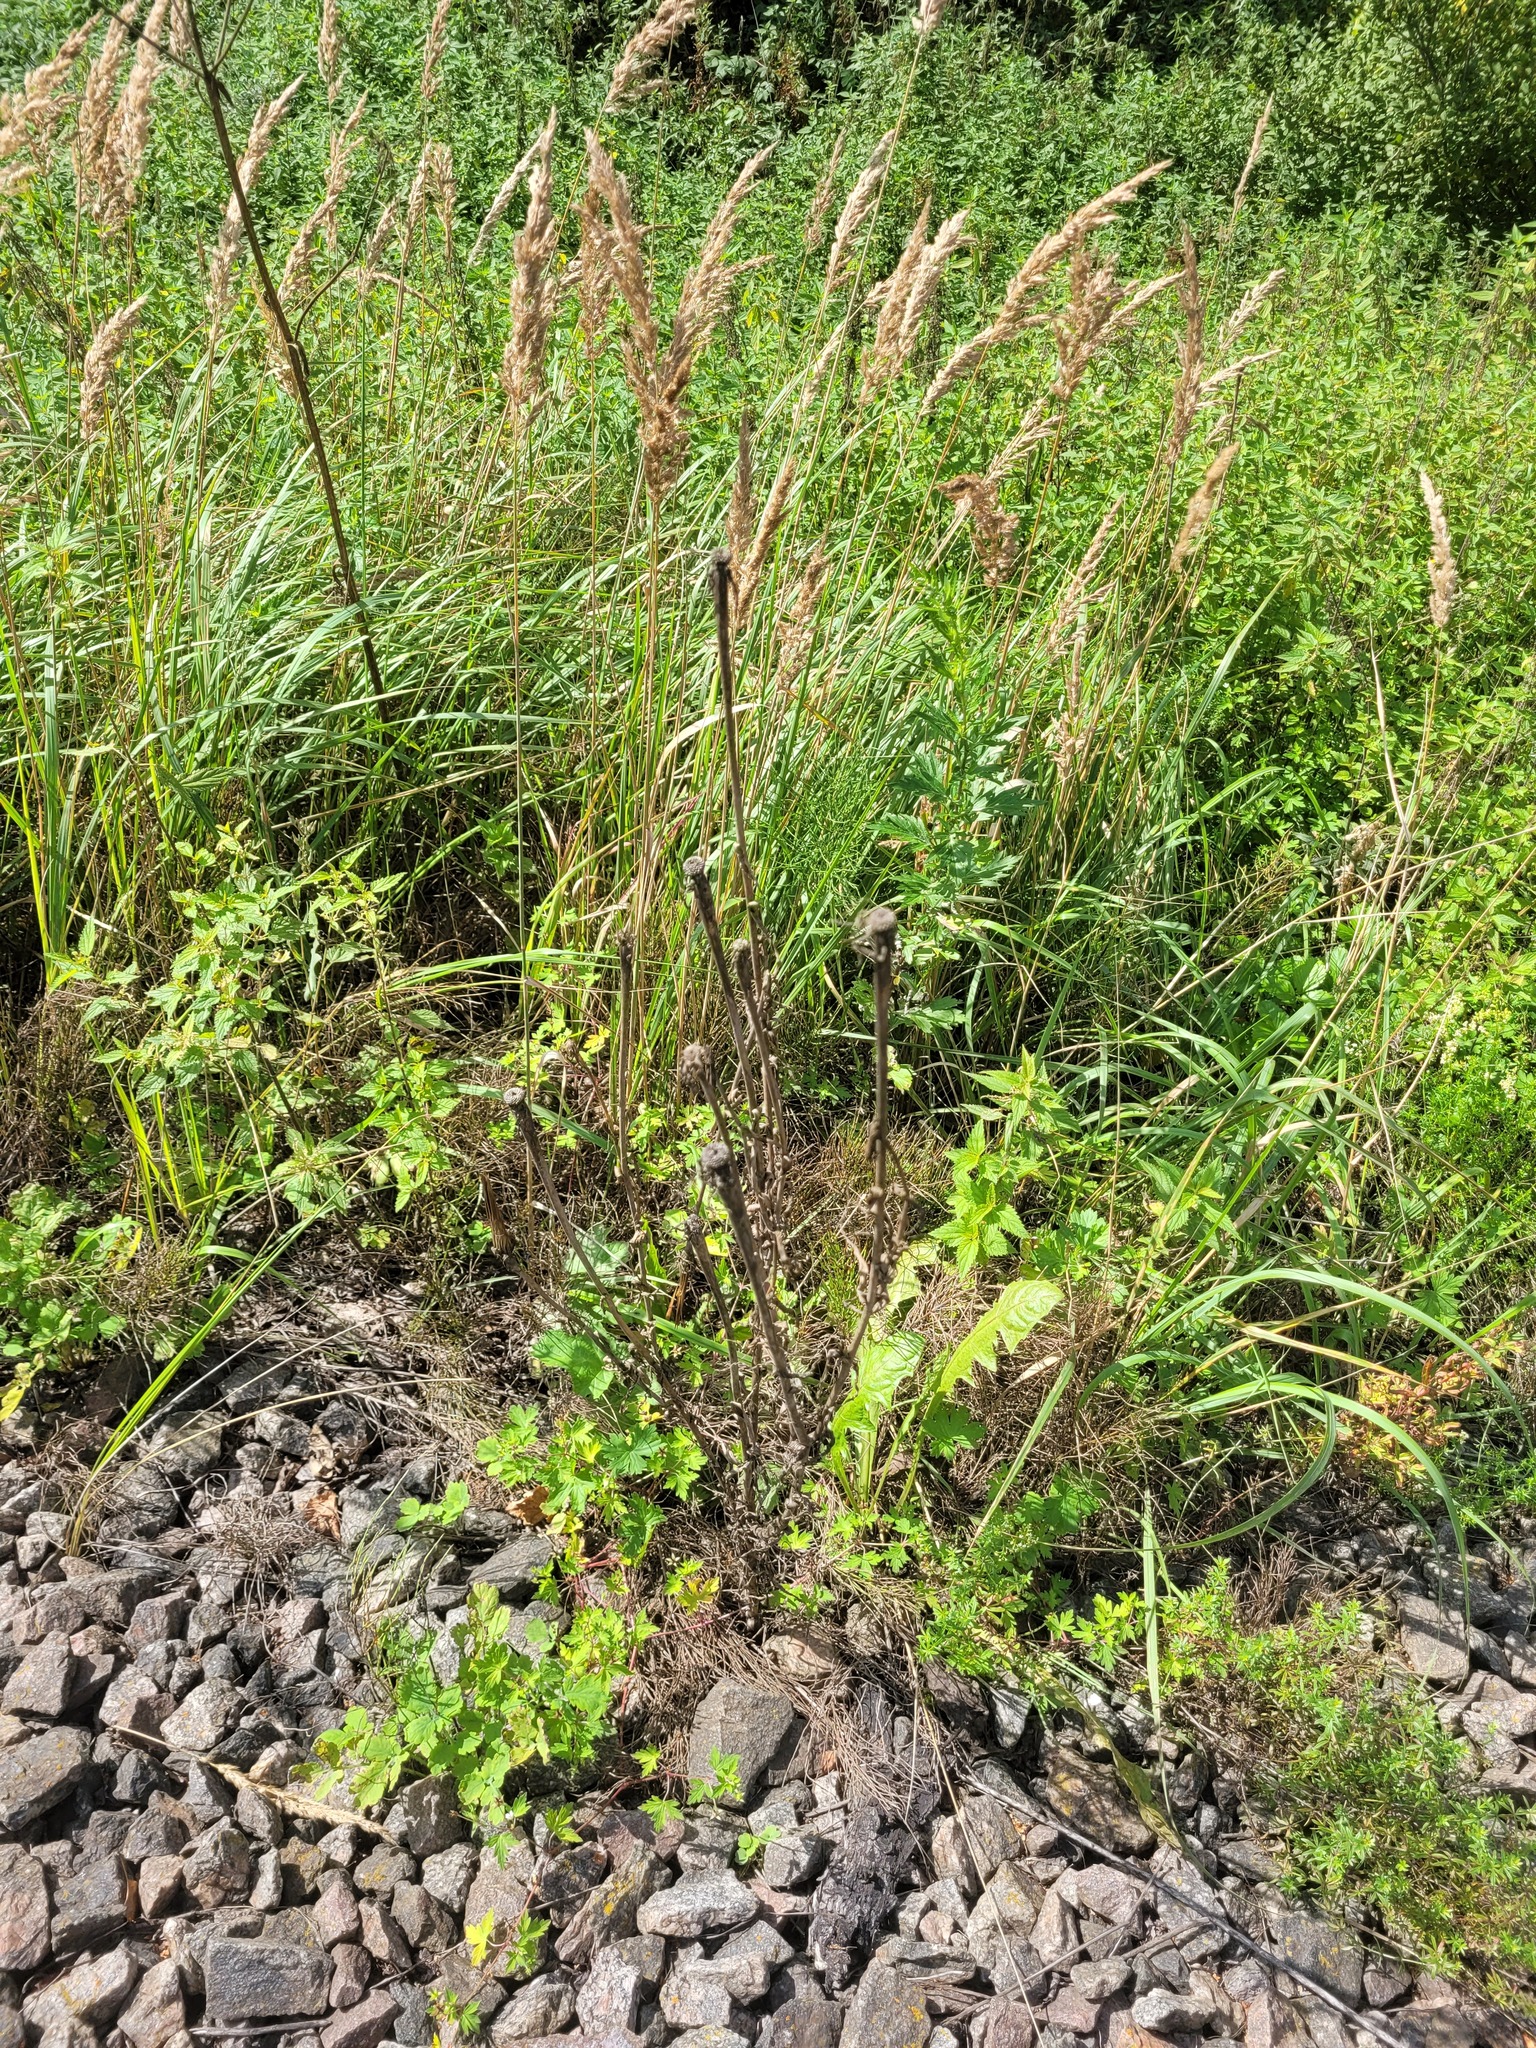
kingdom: Plantae
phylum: Tracheophyta
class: Magnoliopsida
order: Asterales
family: Asteraceae
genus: Tragopogon
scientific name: Tragopogon dubius
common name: Yellow salsify
